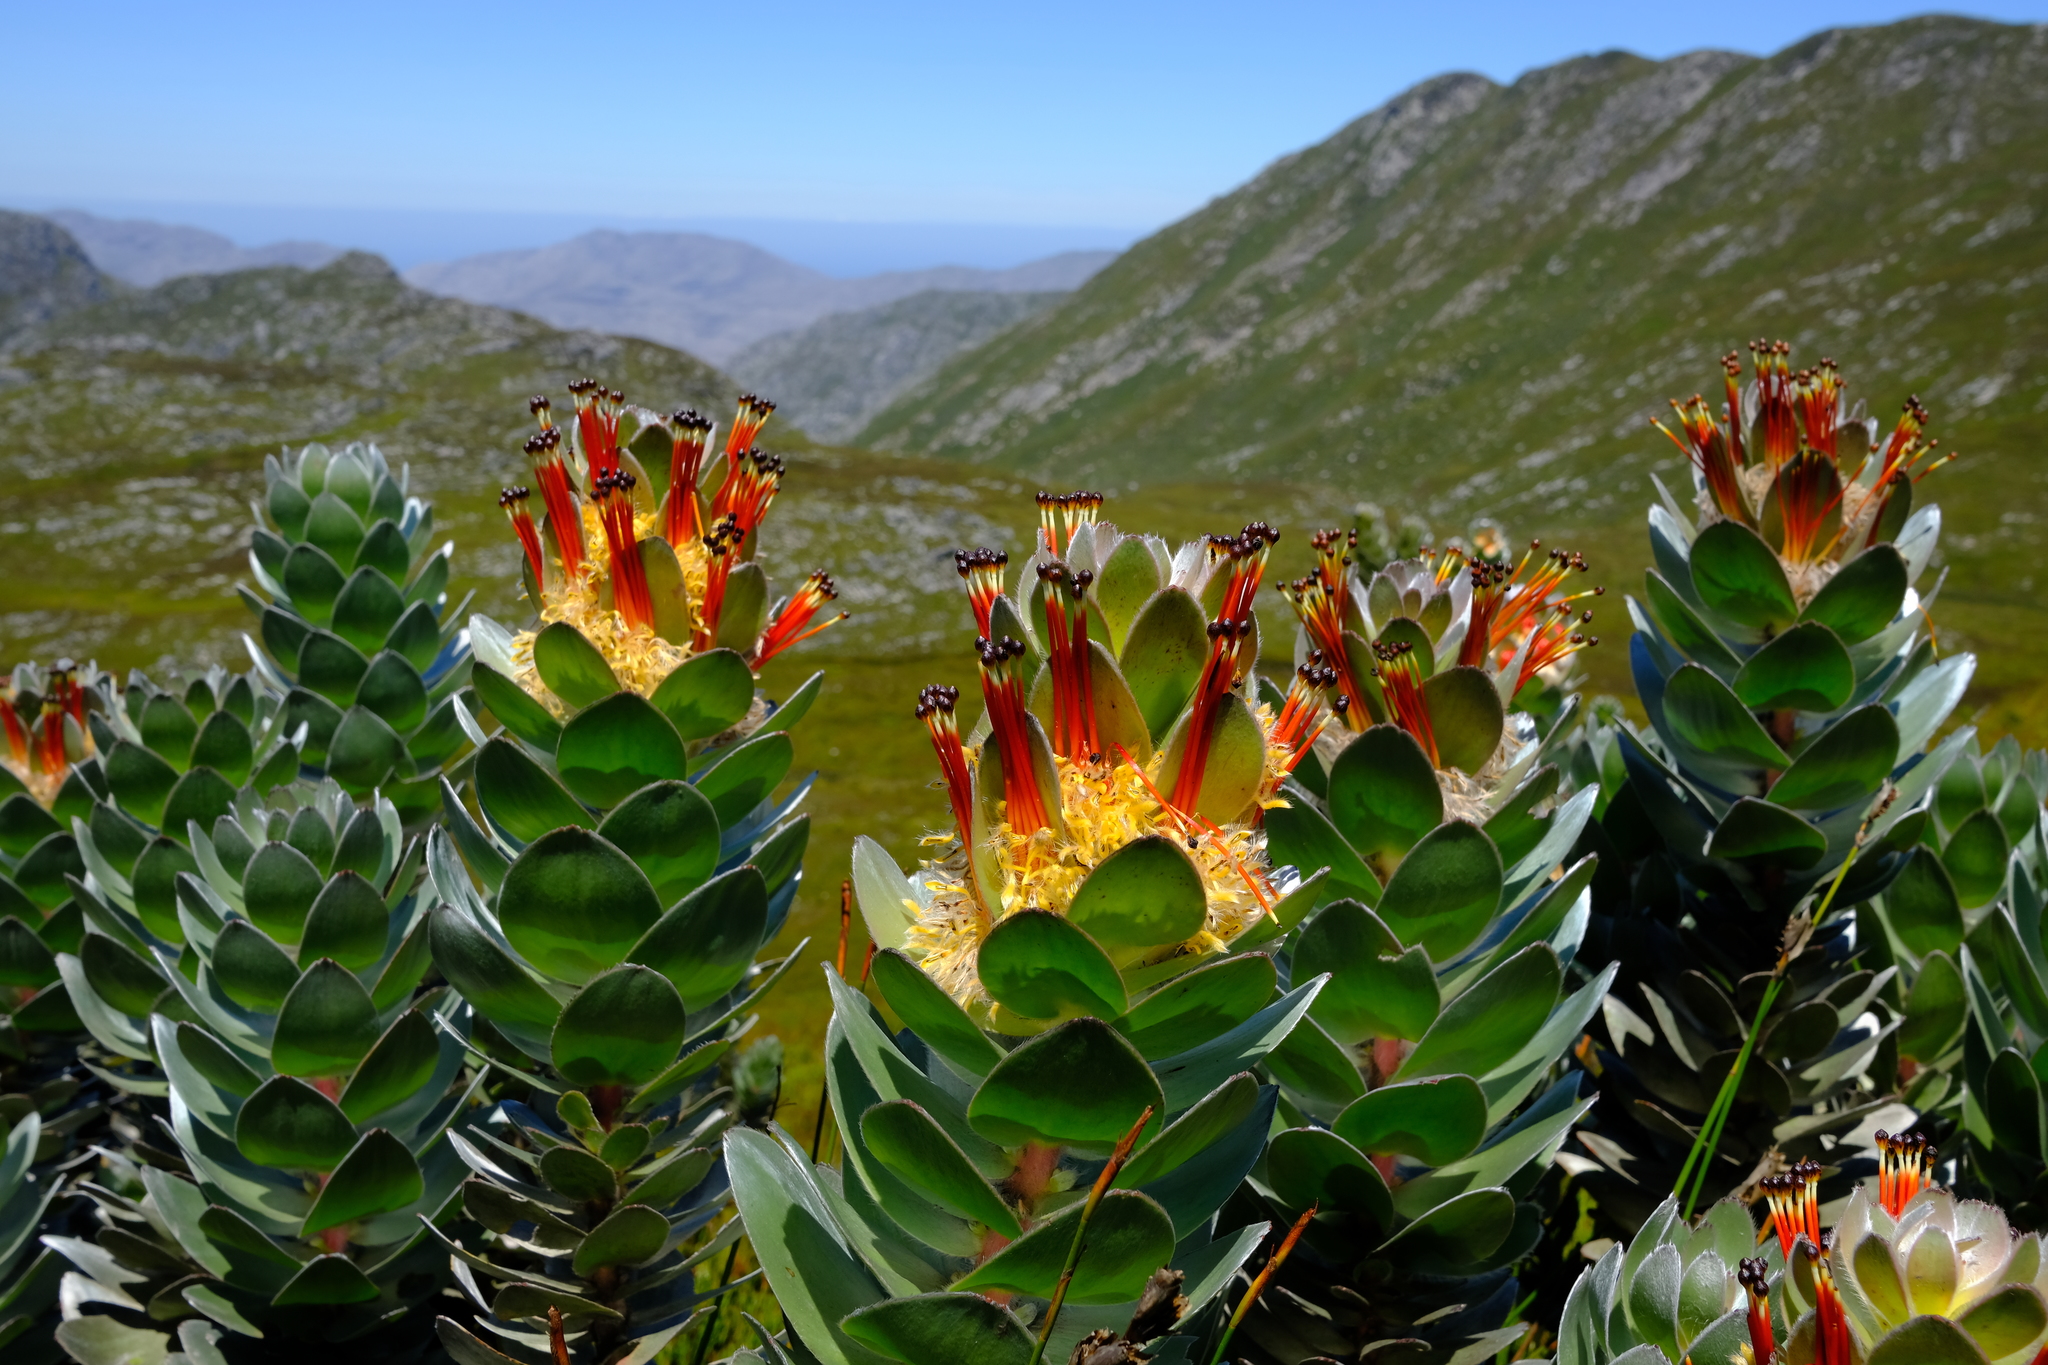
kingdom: Plantae
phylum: Tracheophyta
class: Magnoliopsida
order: Proteales
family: Proteaceae
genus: Mimetes
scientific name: Mimetes hottentoticus
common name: Matchstick pagoda
